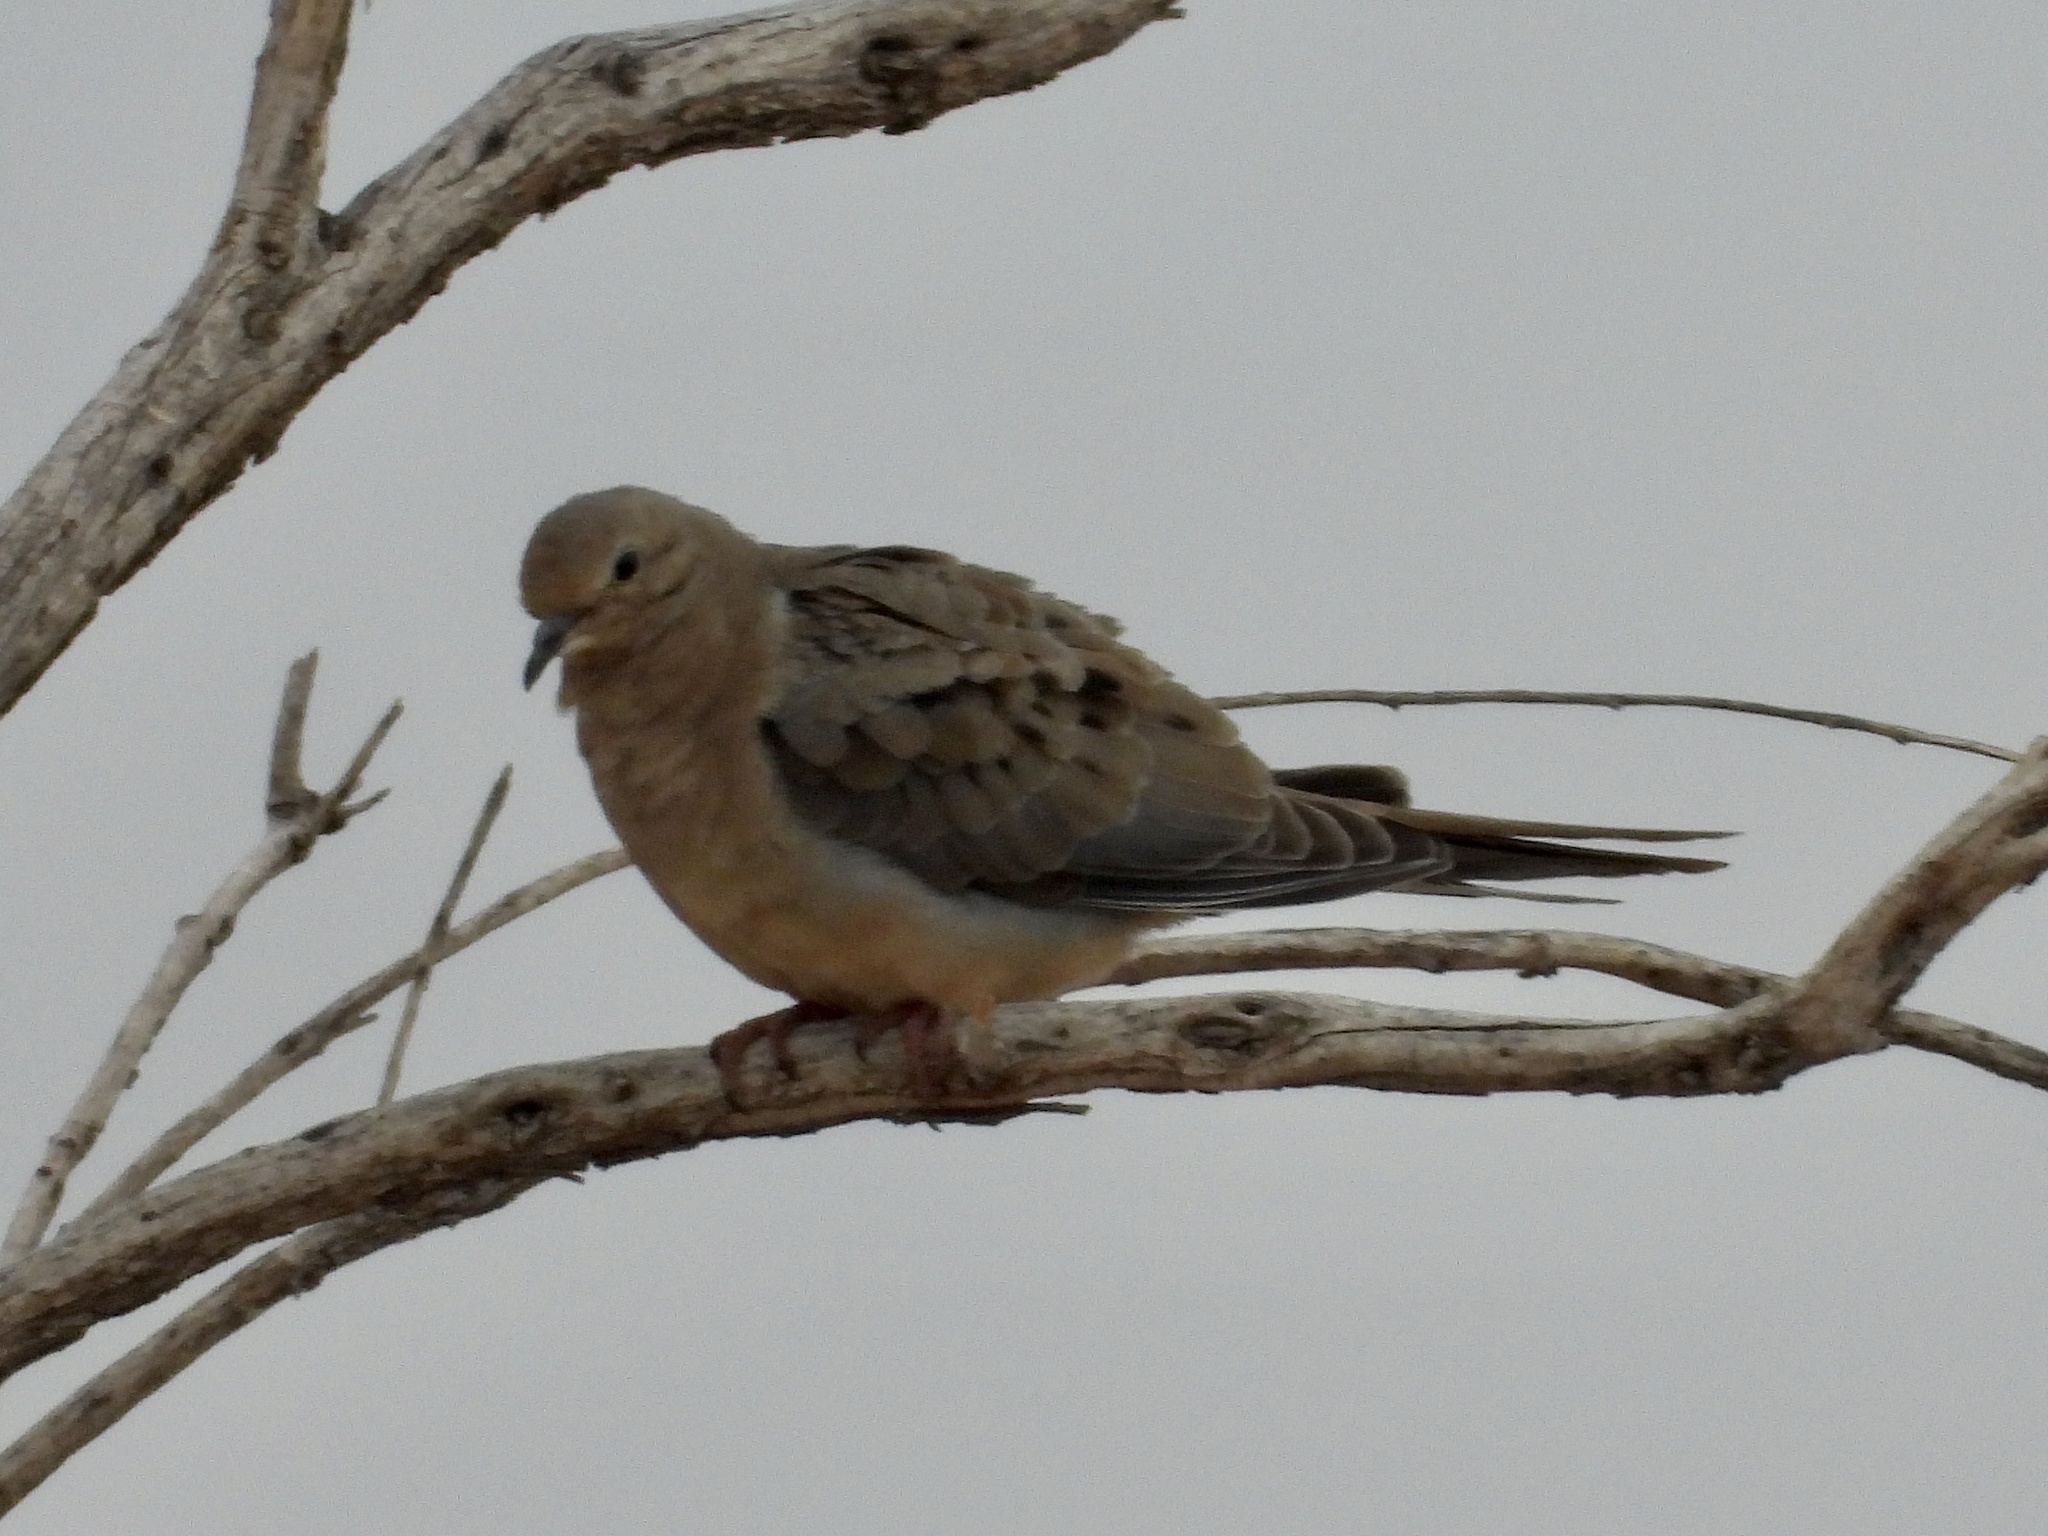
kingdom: Animalia
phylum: Chordata
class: Aves
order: Columbiformes
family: Columbidae
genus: Zenaida
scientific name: Zenaida macroura
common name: Mourning dove
